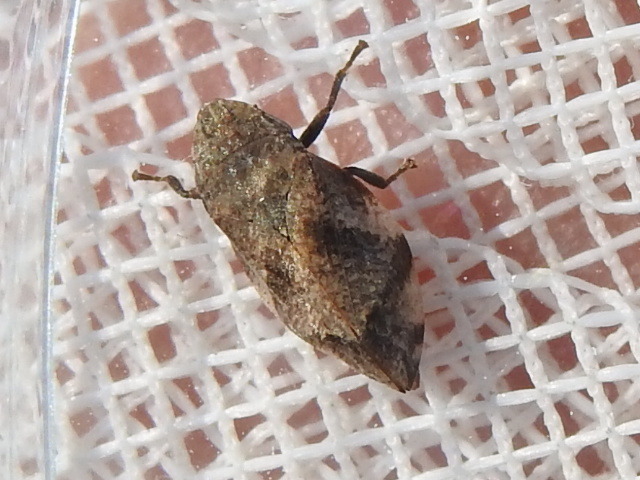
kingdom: Animalia
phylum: Arthropoda
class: Insecta
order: Hemiptera
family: Aphrophoridae
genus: Lepyronia
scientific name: Lepyronia quadrangularis
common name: Diamond-backed spittlebug
